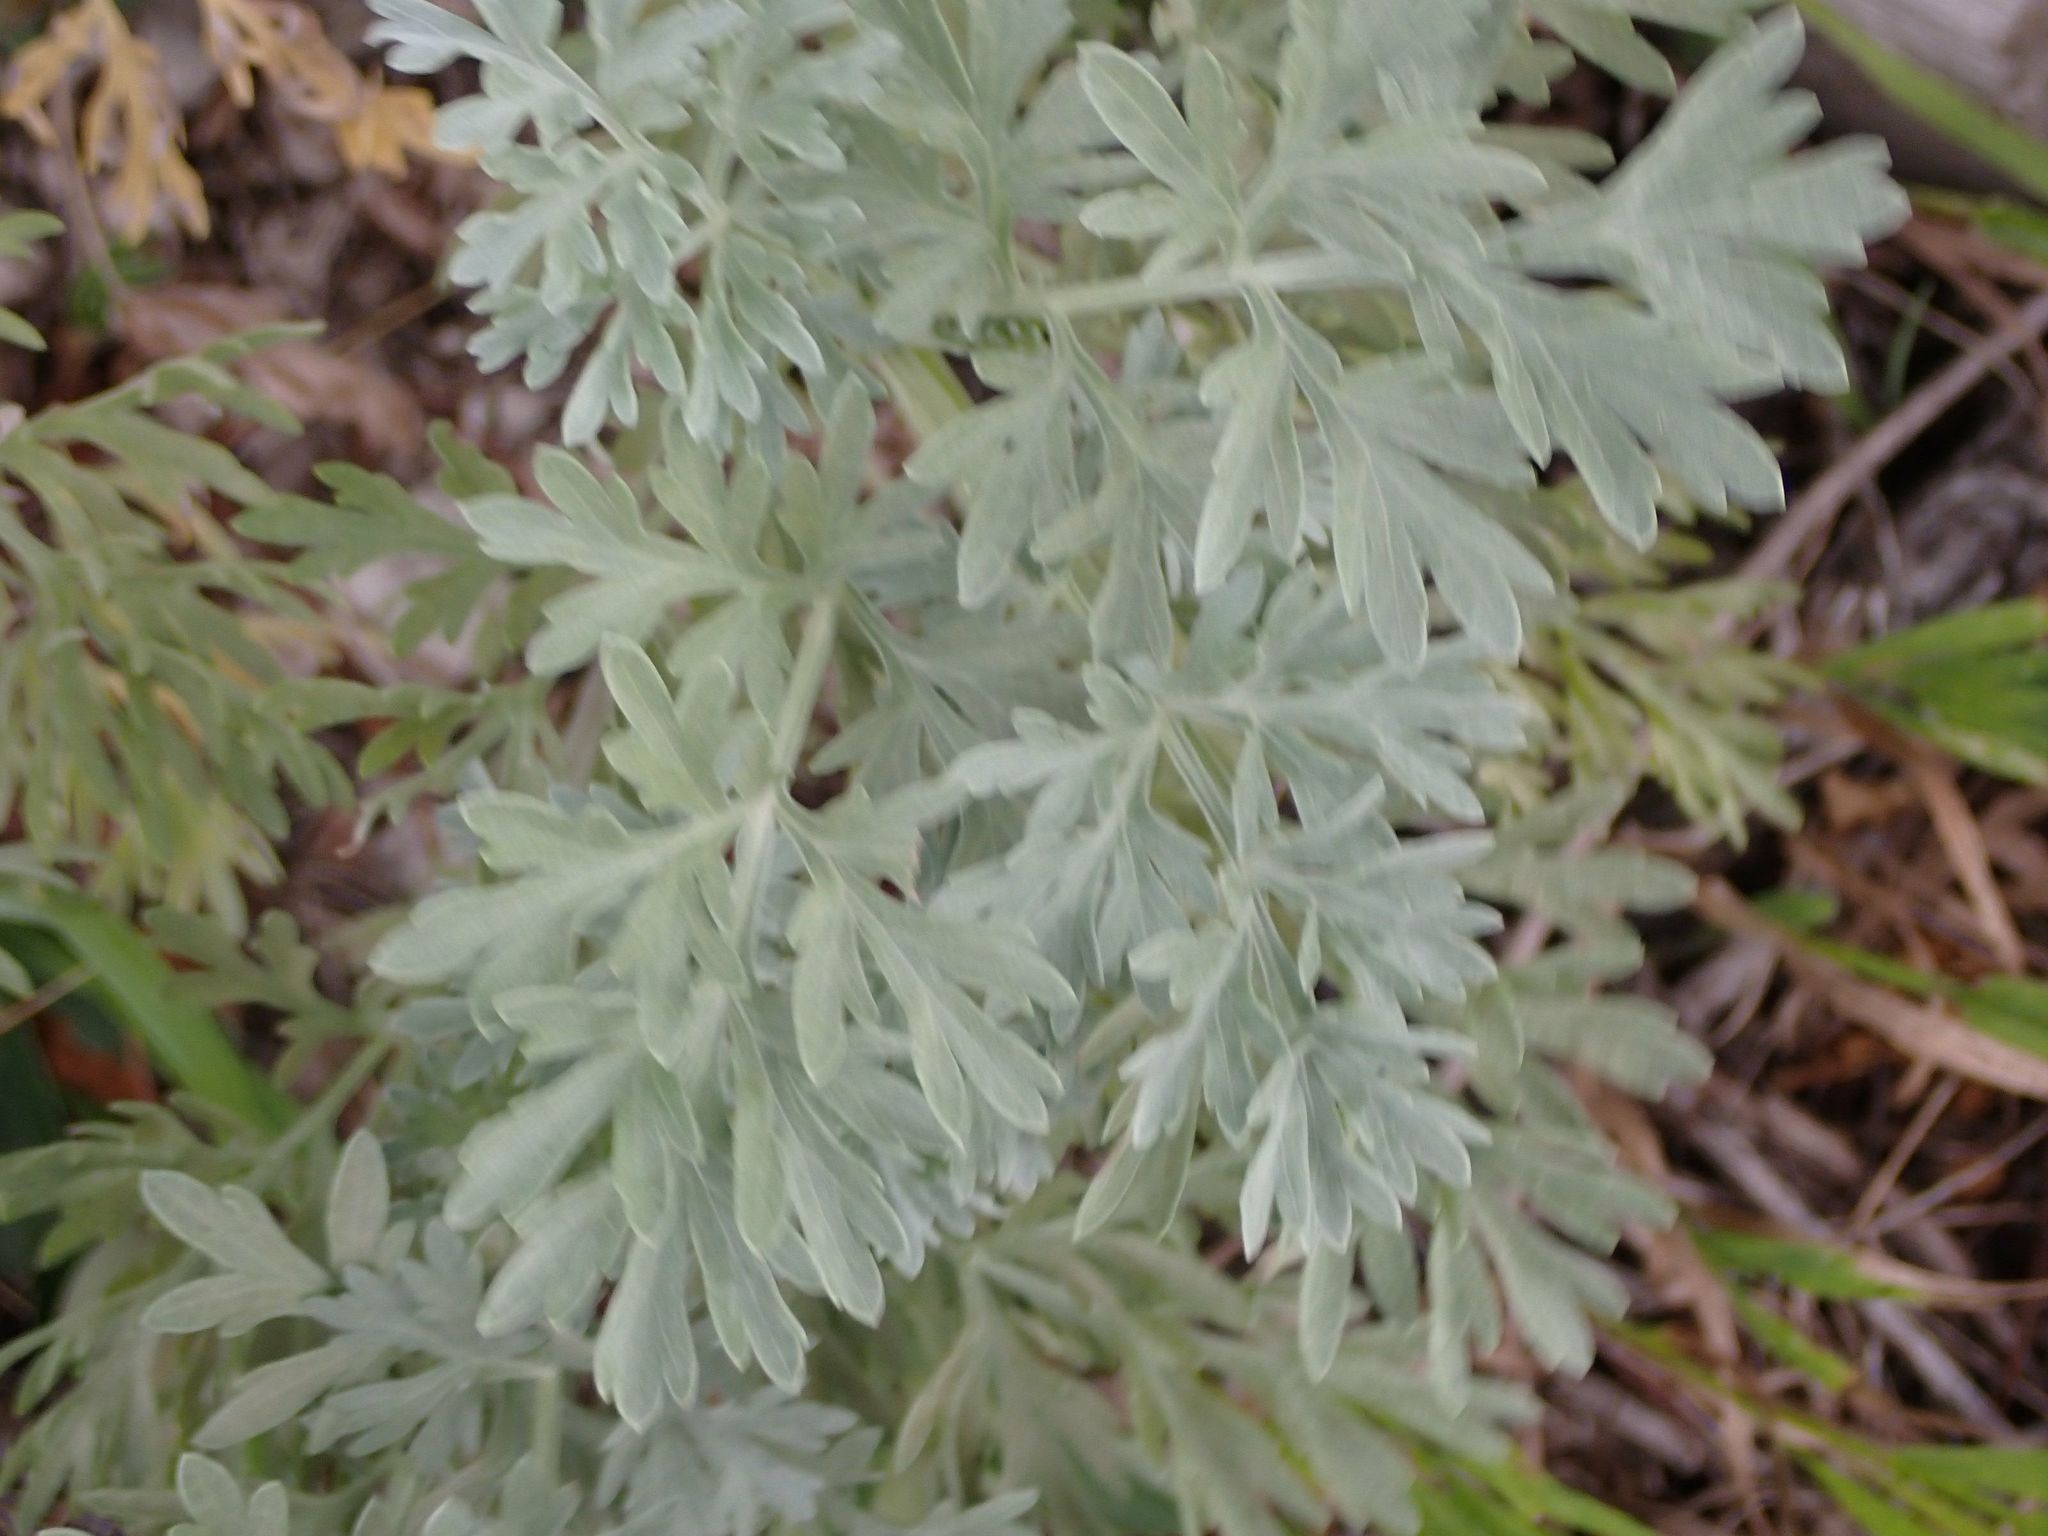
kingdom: Plantae
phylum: Tracheophyta
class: Magnoliopsida
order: Asterales
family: Asteraceae
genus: Artemisia
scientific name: Artemisia absinthium
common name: Wormwood
